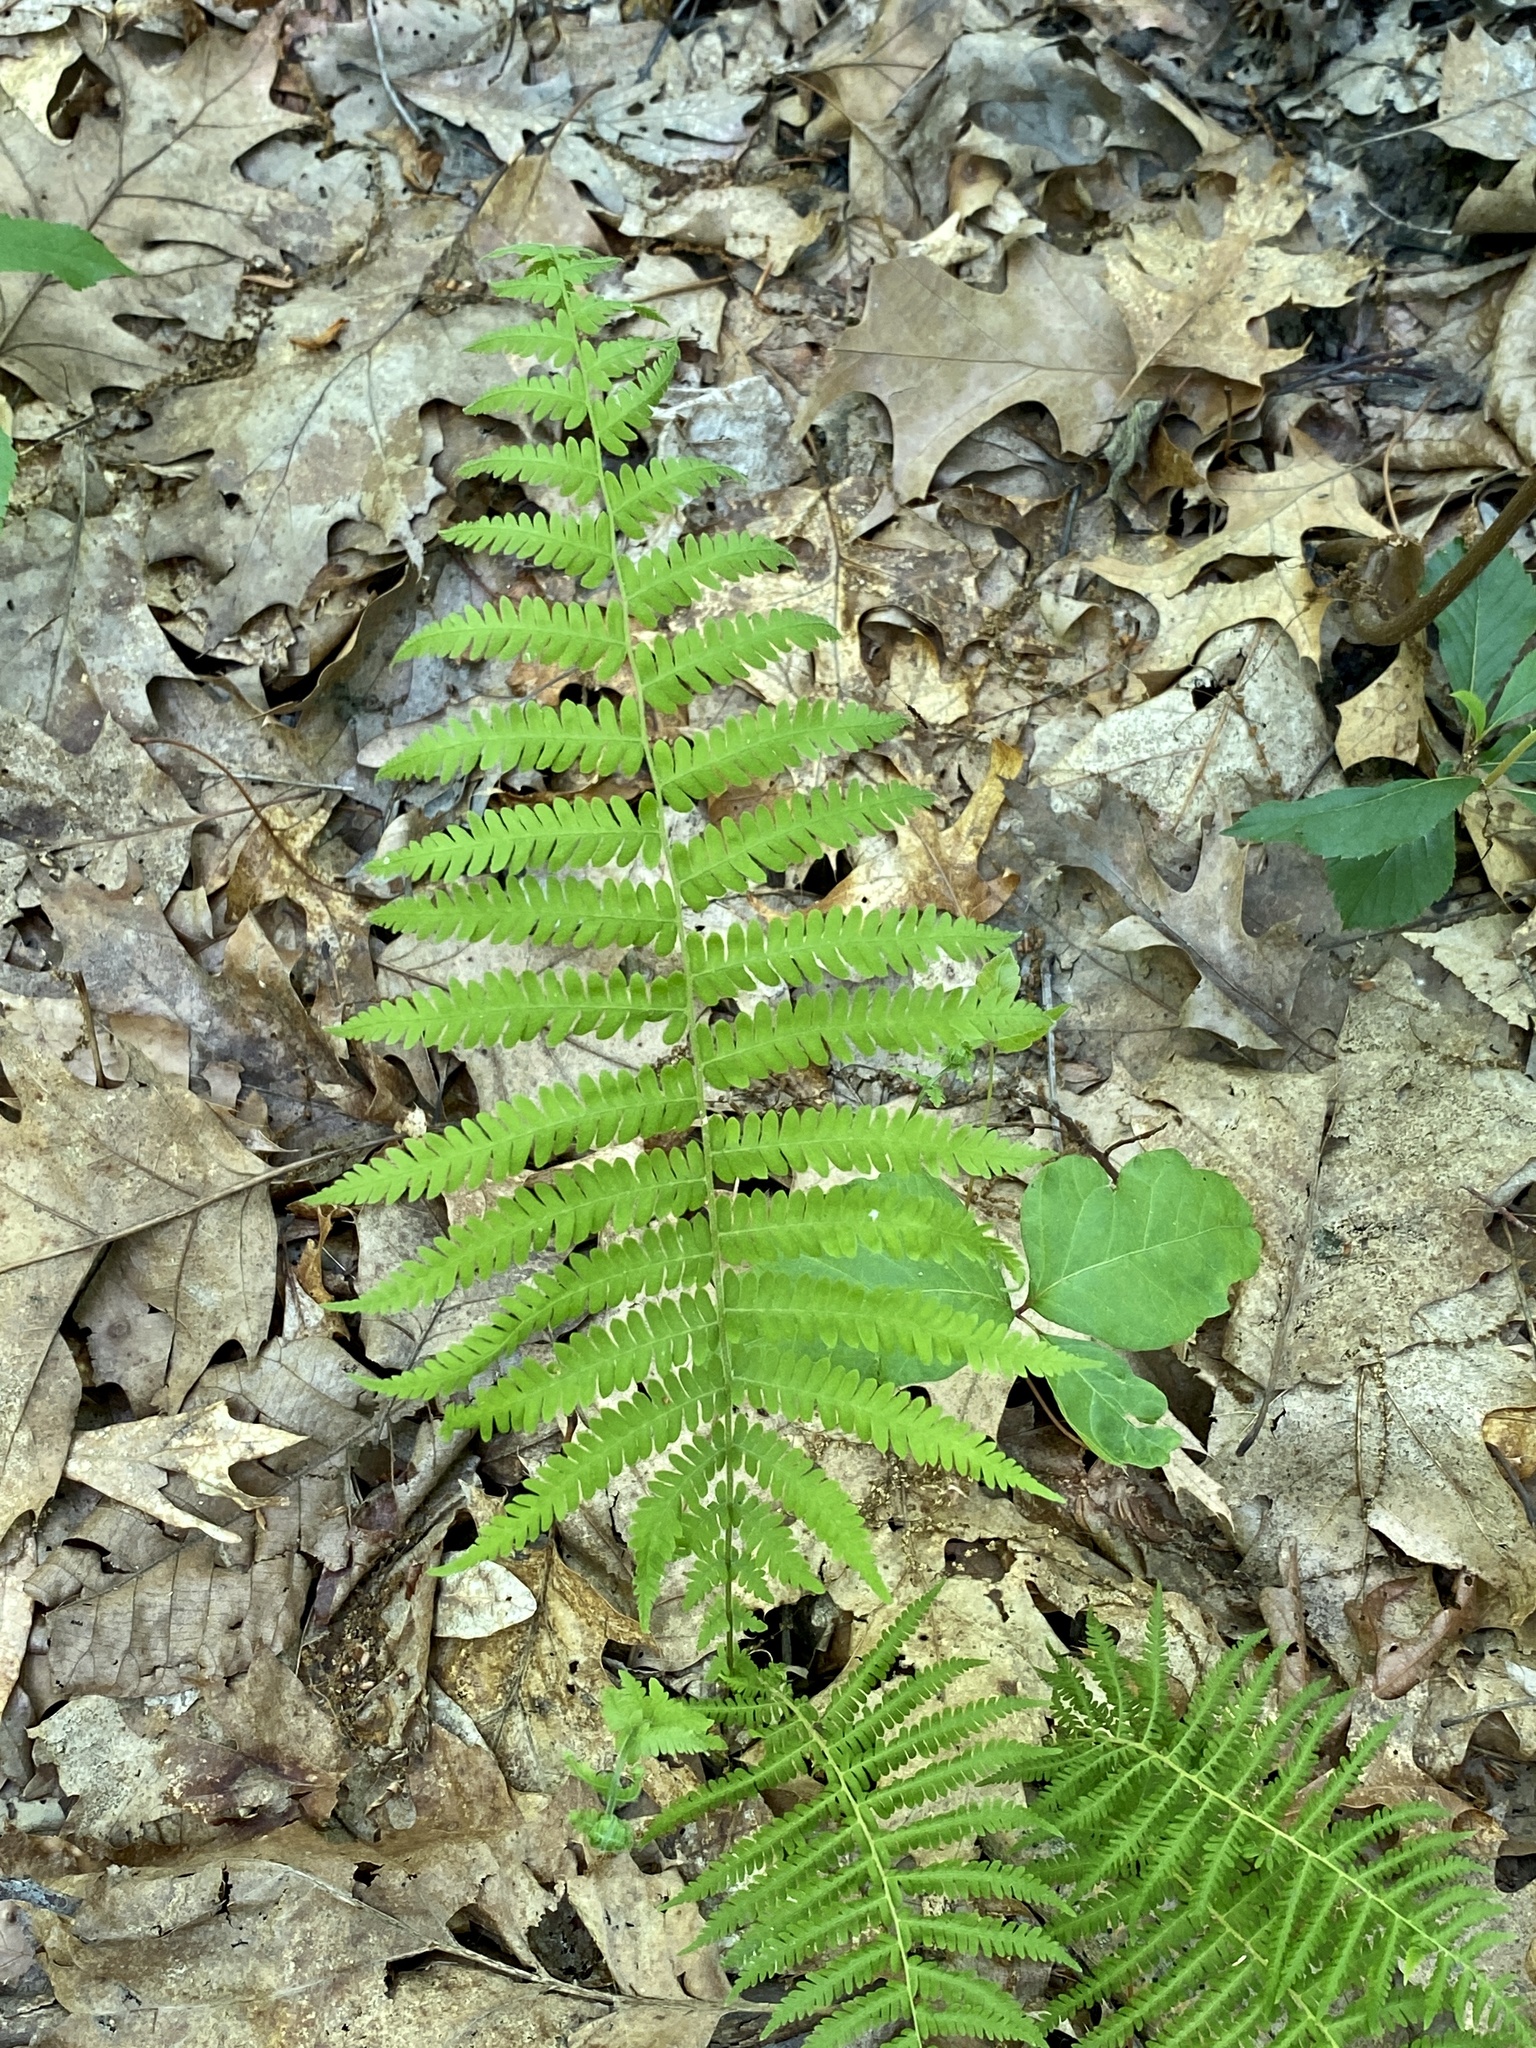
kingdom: Plantae
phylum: Tracheophyta
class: Polypodiopsida
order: Polypodiales
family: Thelypteridaceae
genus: Amauropelta
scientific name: Amauropelta noveboracensis
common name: New york fern
